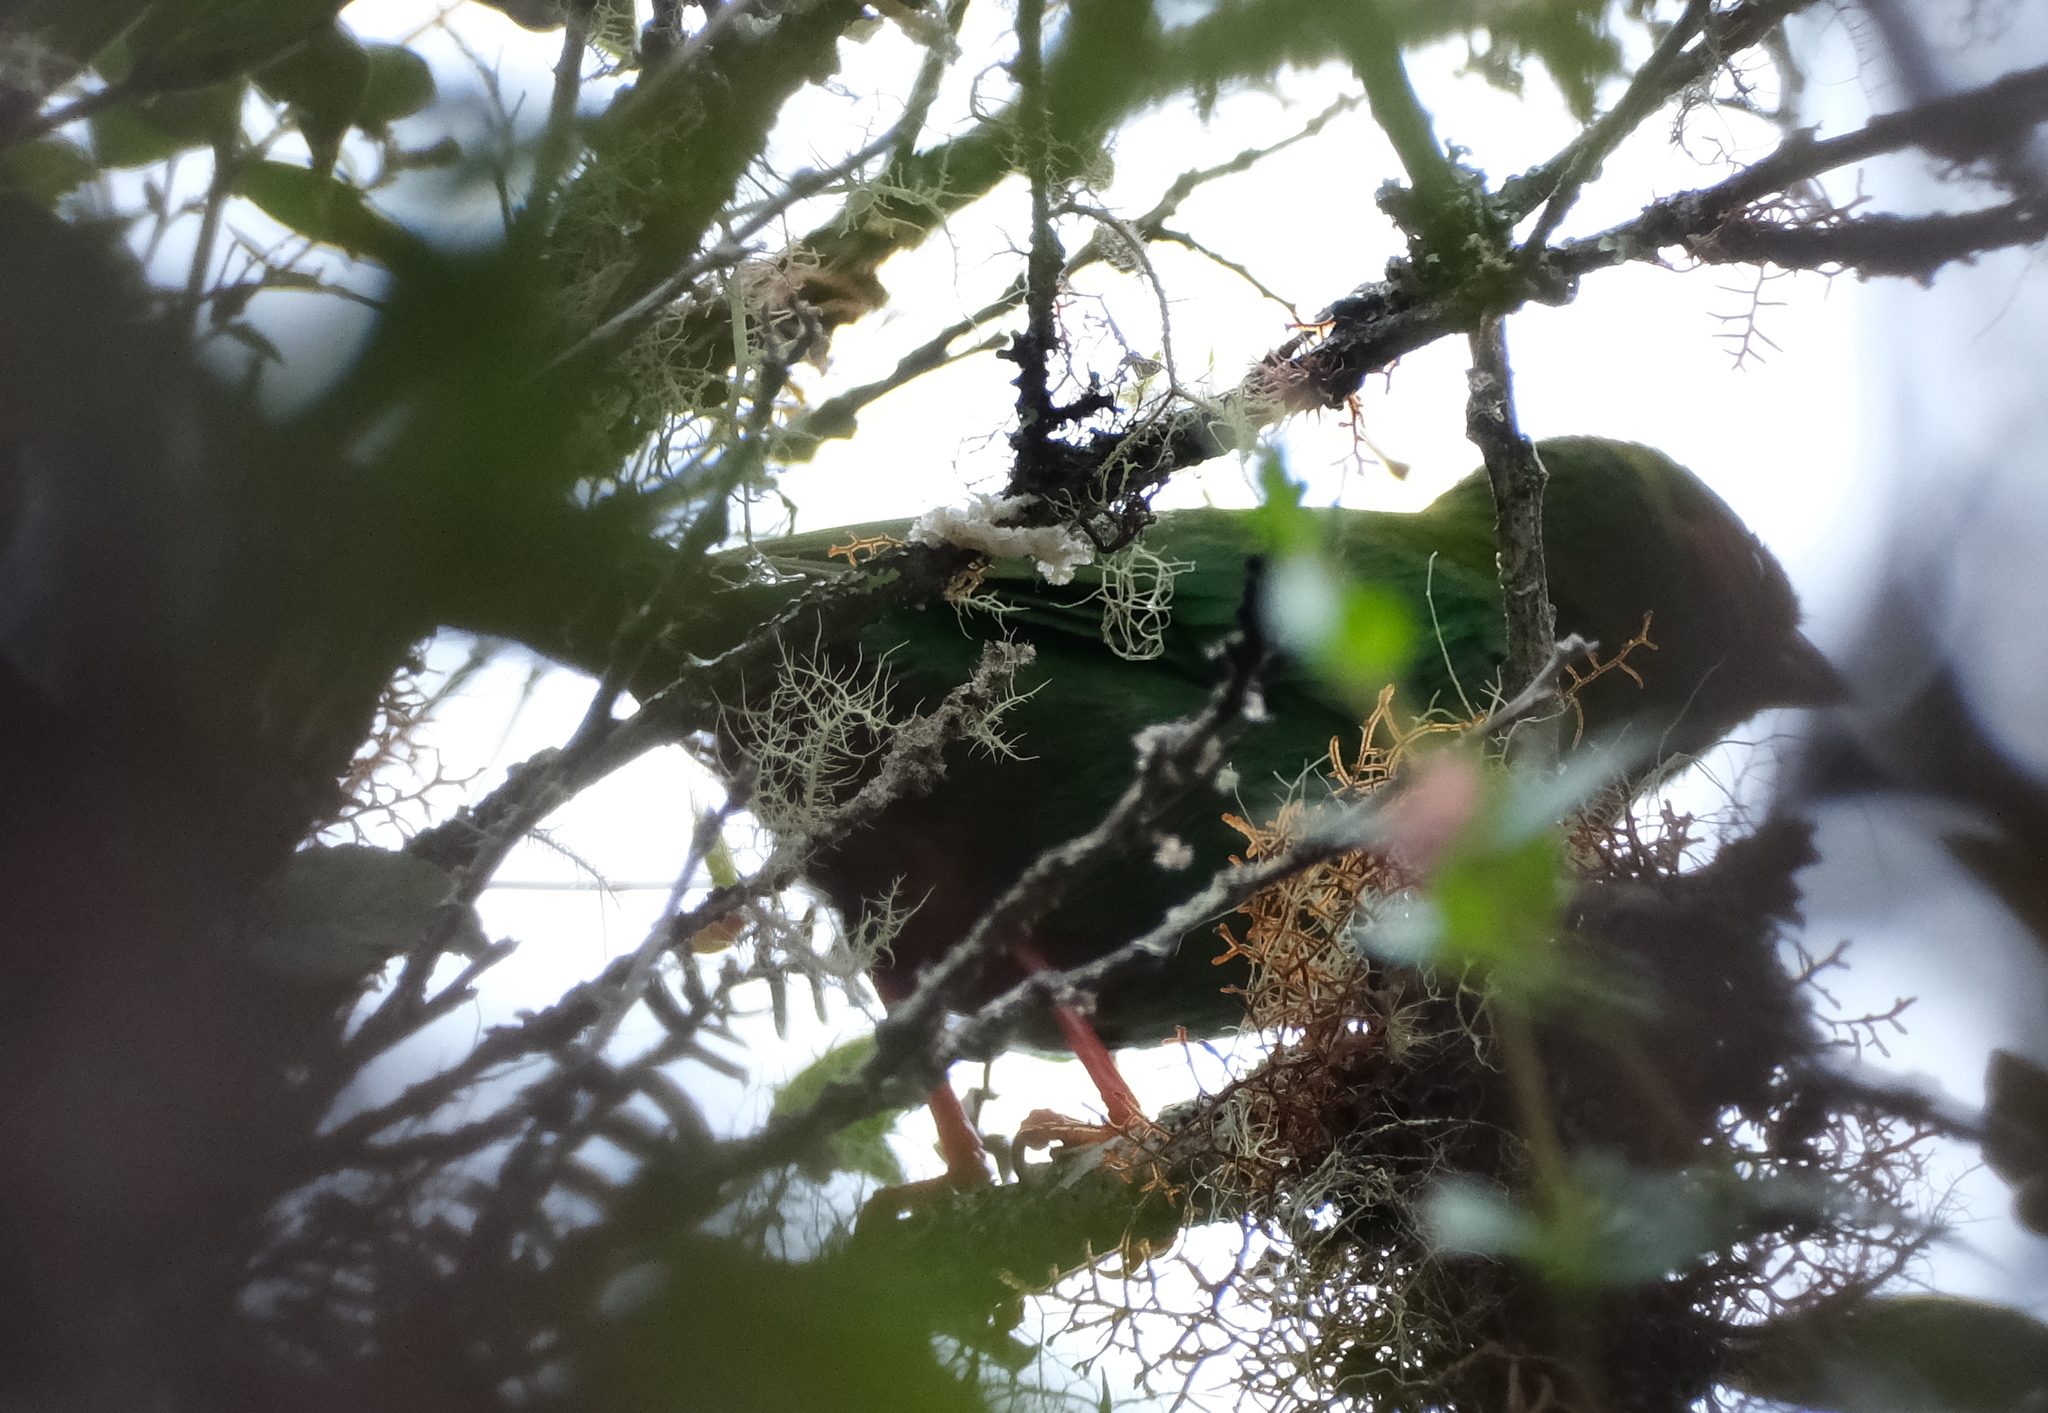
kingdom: Animalia
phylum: Chordata
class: Aves
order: Passeriformes
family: Thraupidae
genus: Chlorornis
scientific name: Chlorornis riefferii
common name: Grass-green tanager
